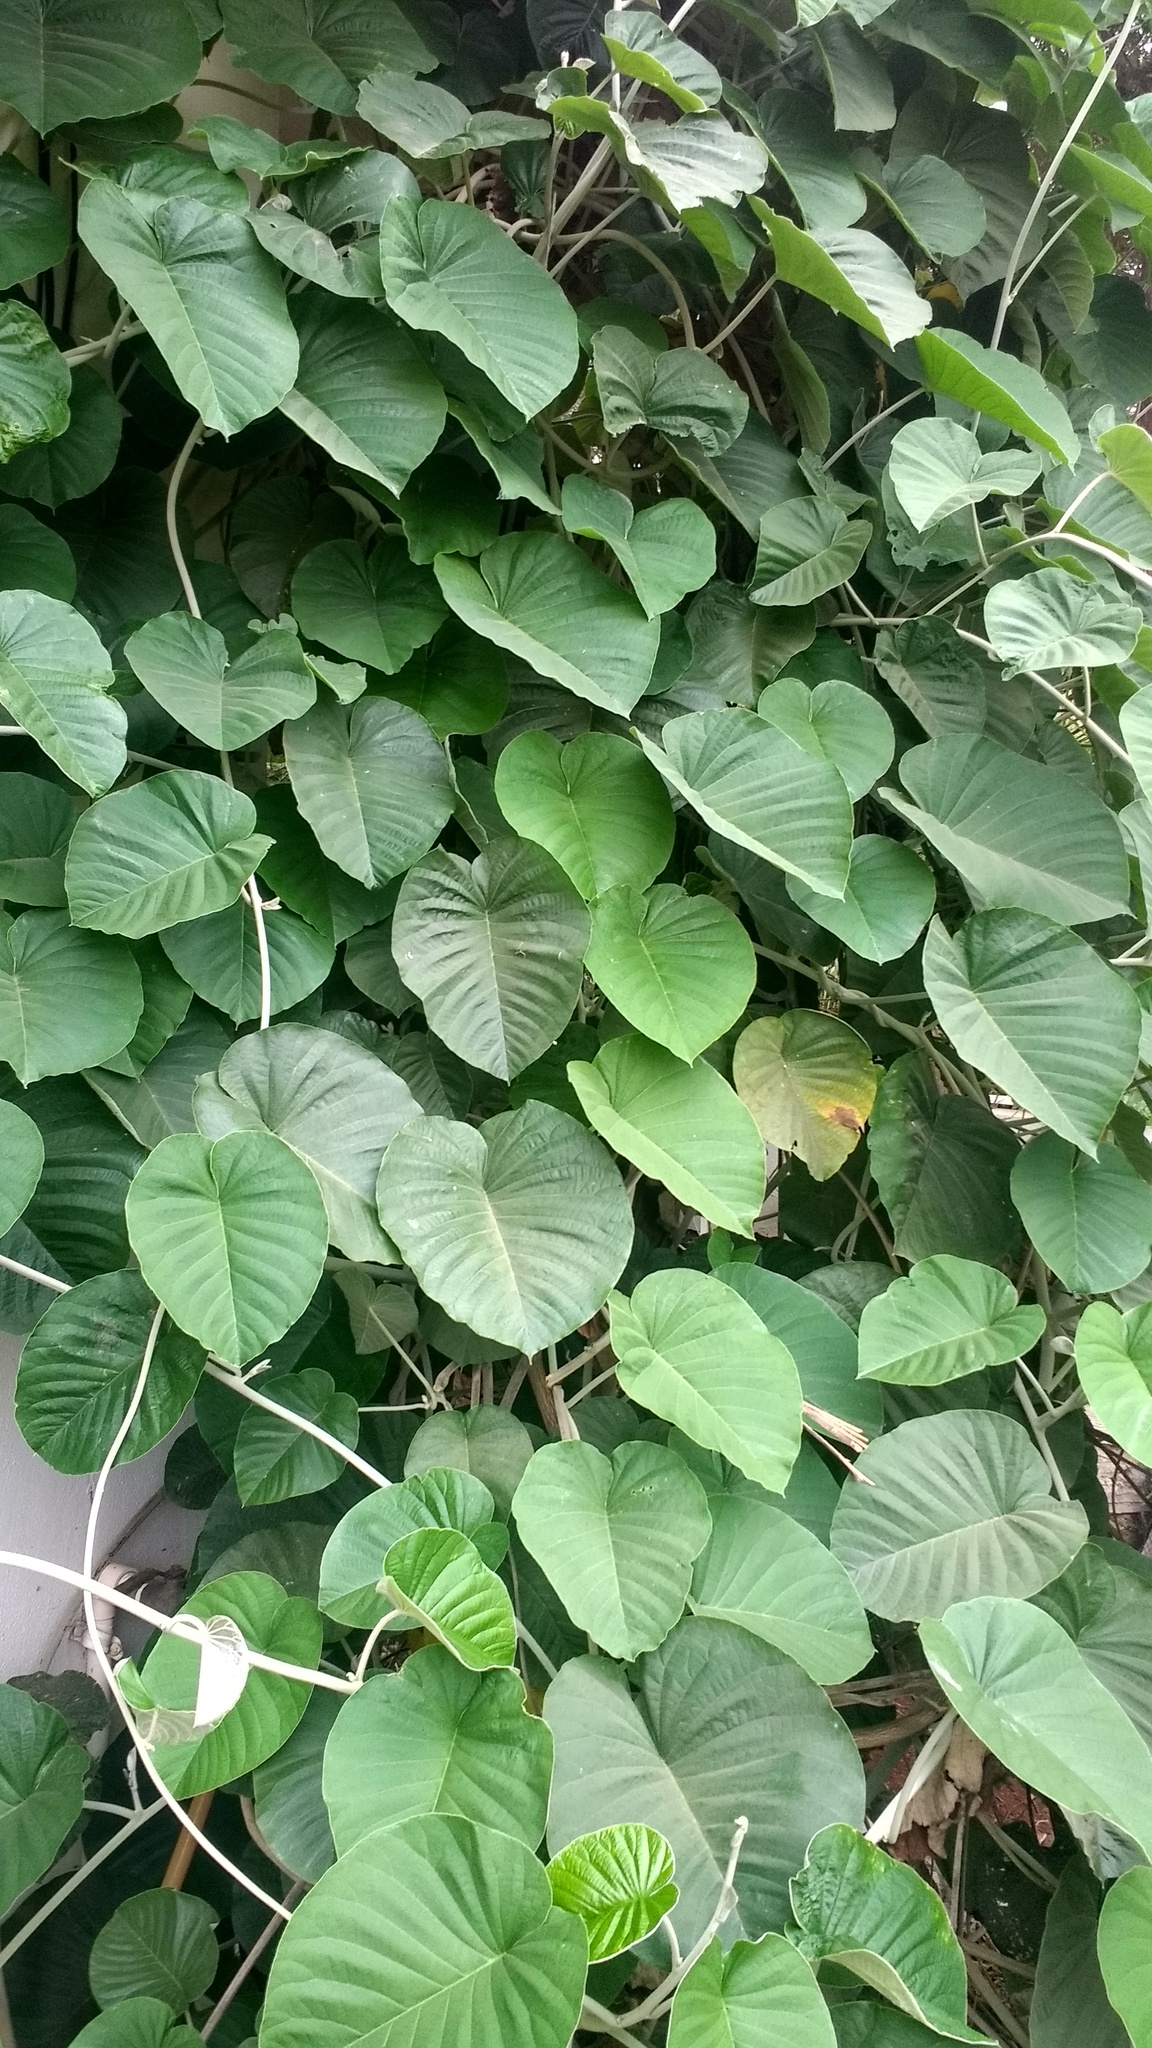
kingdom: Plantae
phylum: Tracheophyta
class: Magnoliopsida
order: Solanales
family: Convolvulaceae
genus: Argyreia
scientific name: Argyreia nervosa
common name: Elephant creeper
